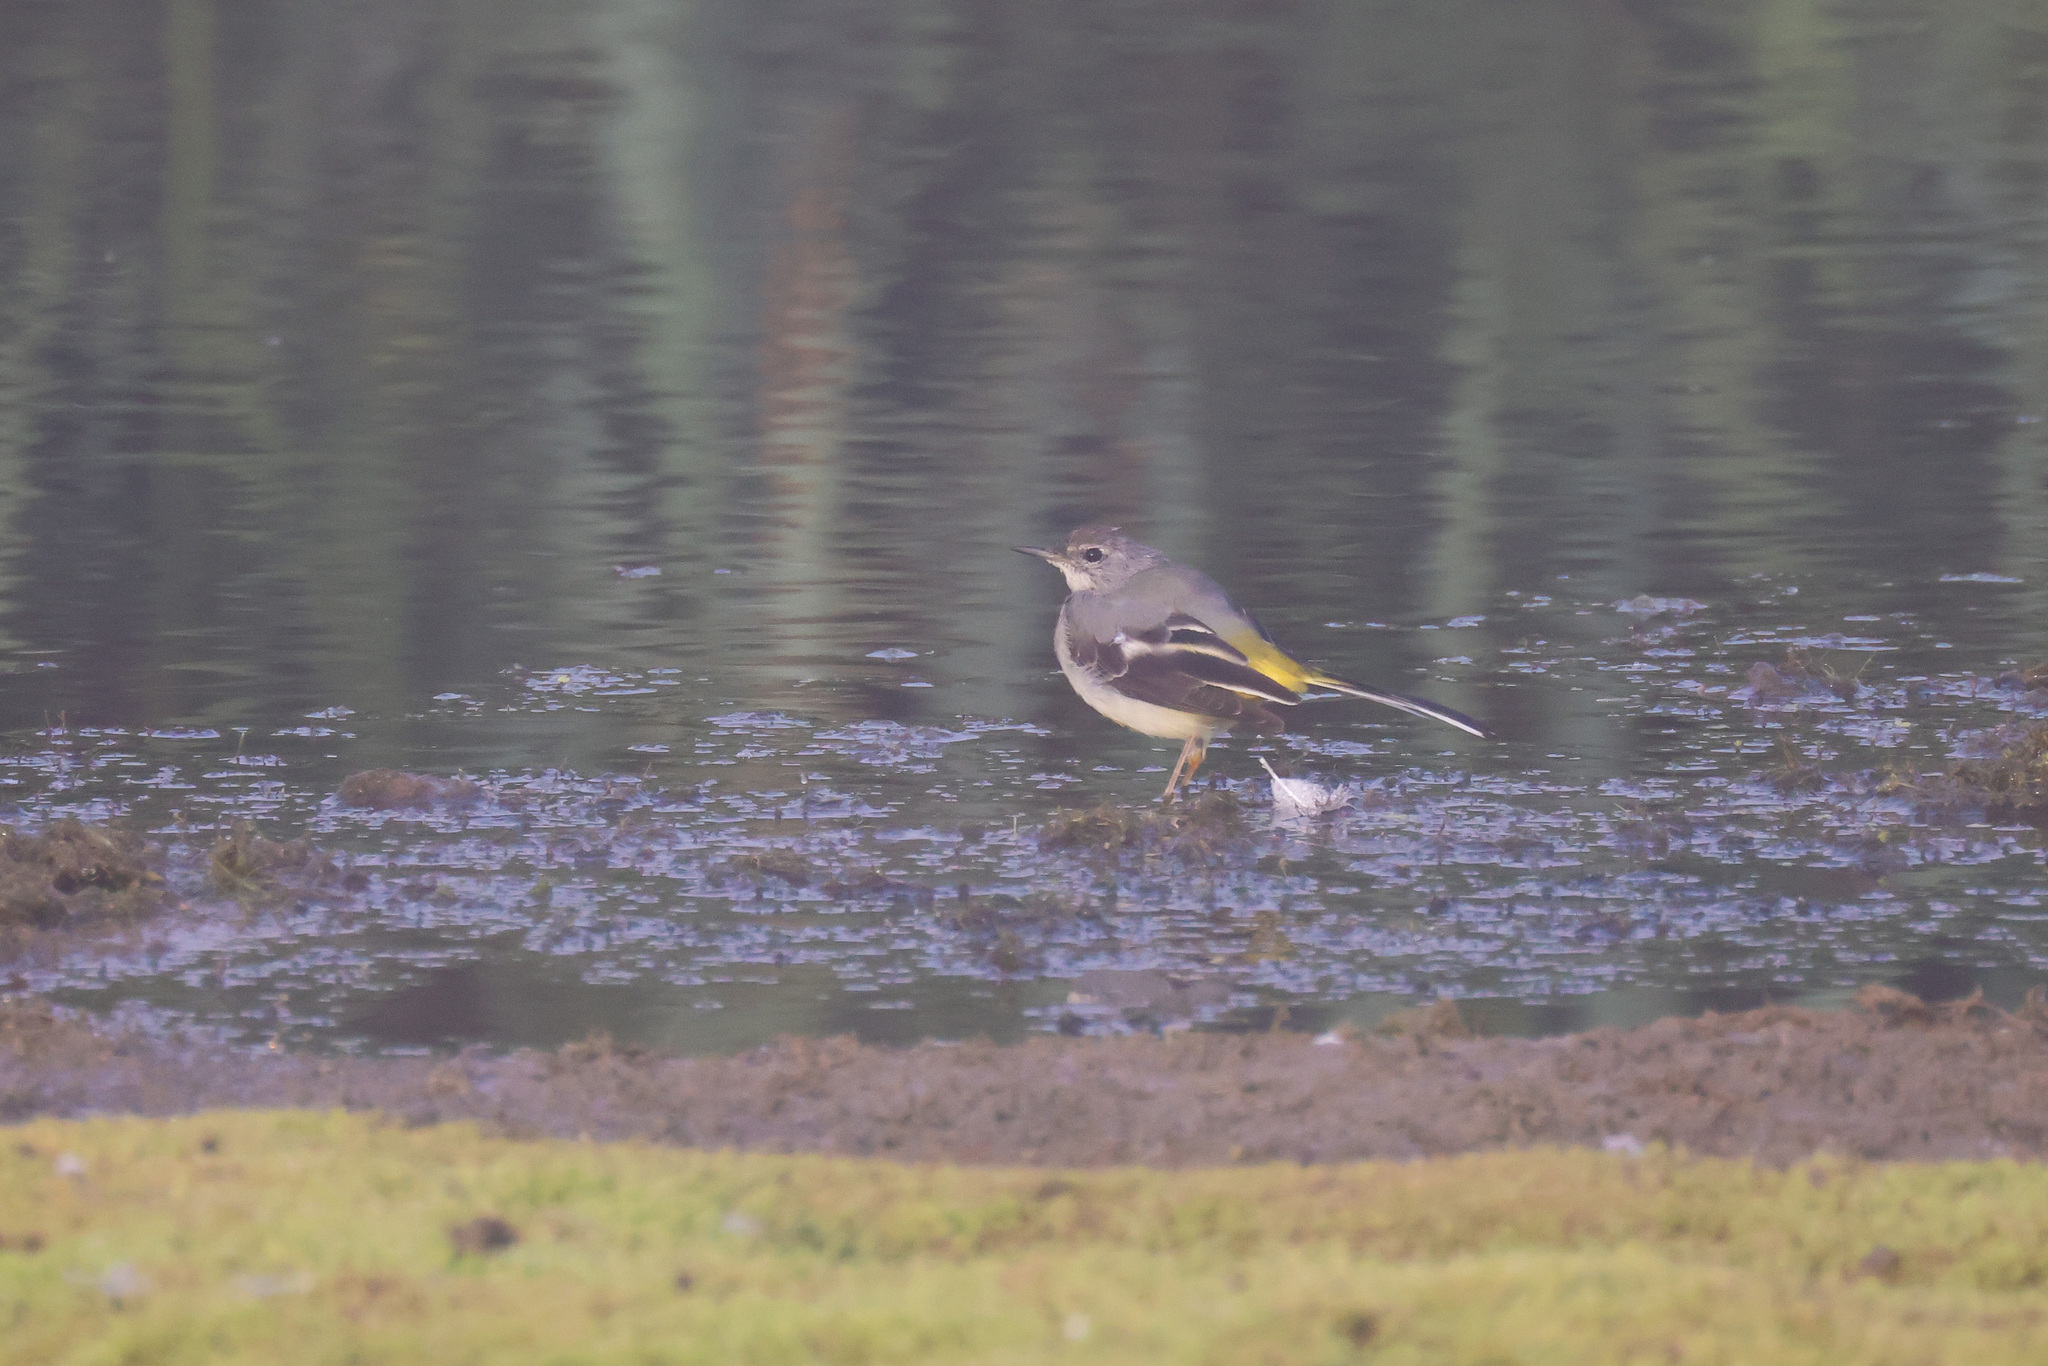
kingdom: Animalia
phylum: Chordata
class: Aves
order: Passeriformes
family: Motacillidae
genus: Motacilla
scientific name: Motacilla cinerea
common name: Grey wagtail
